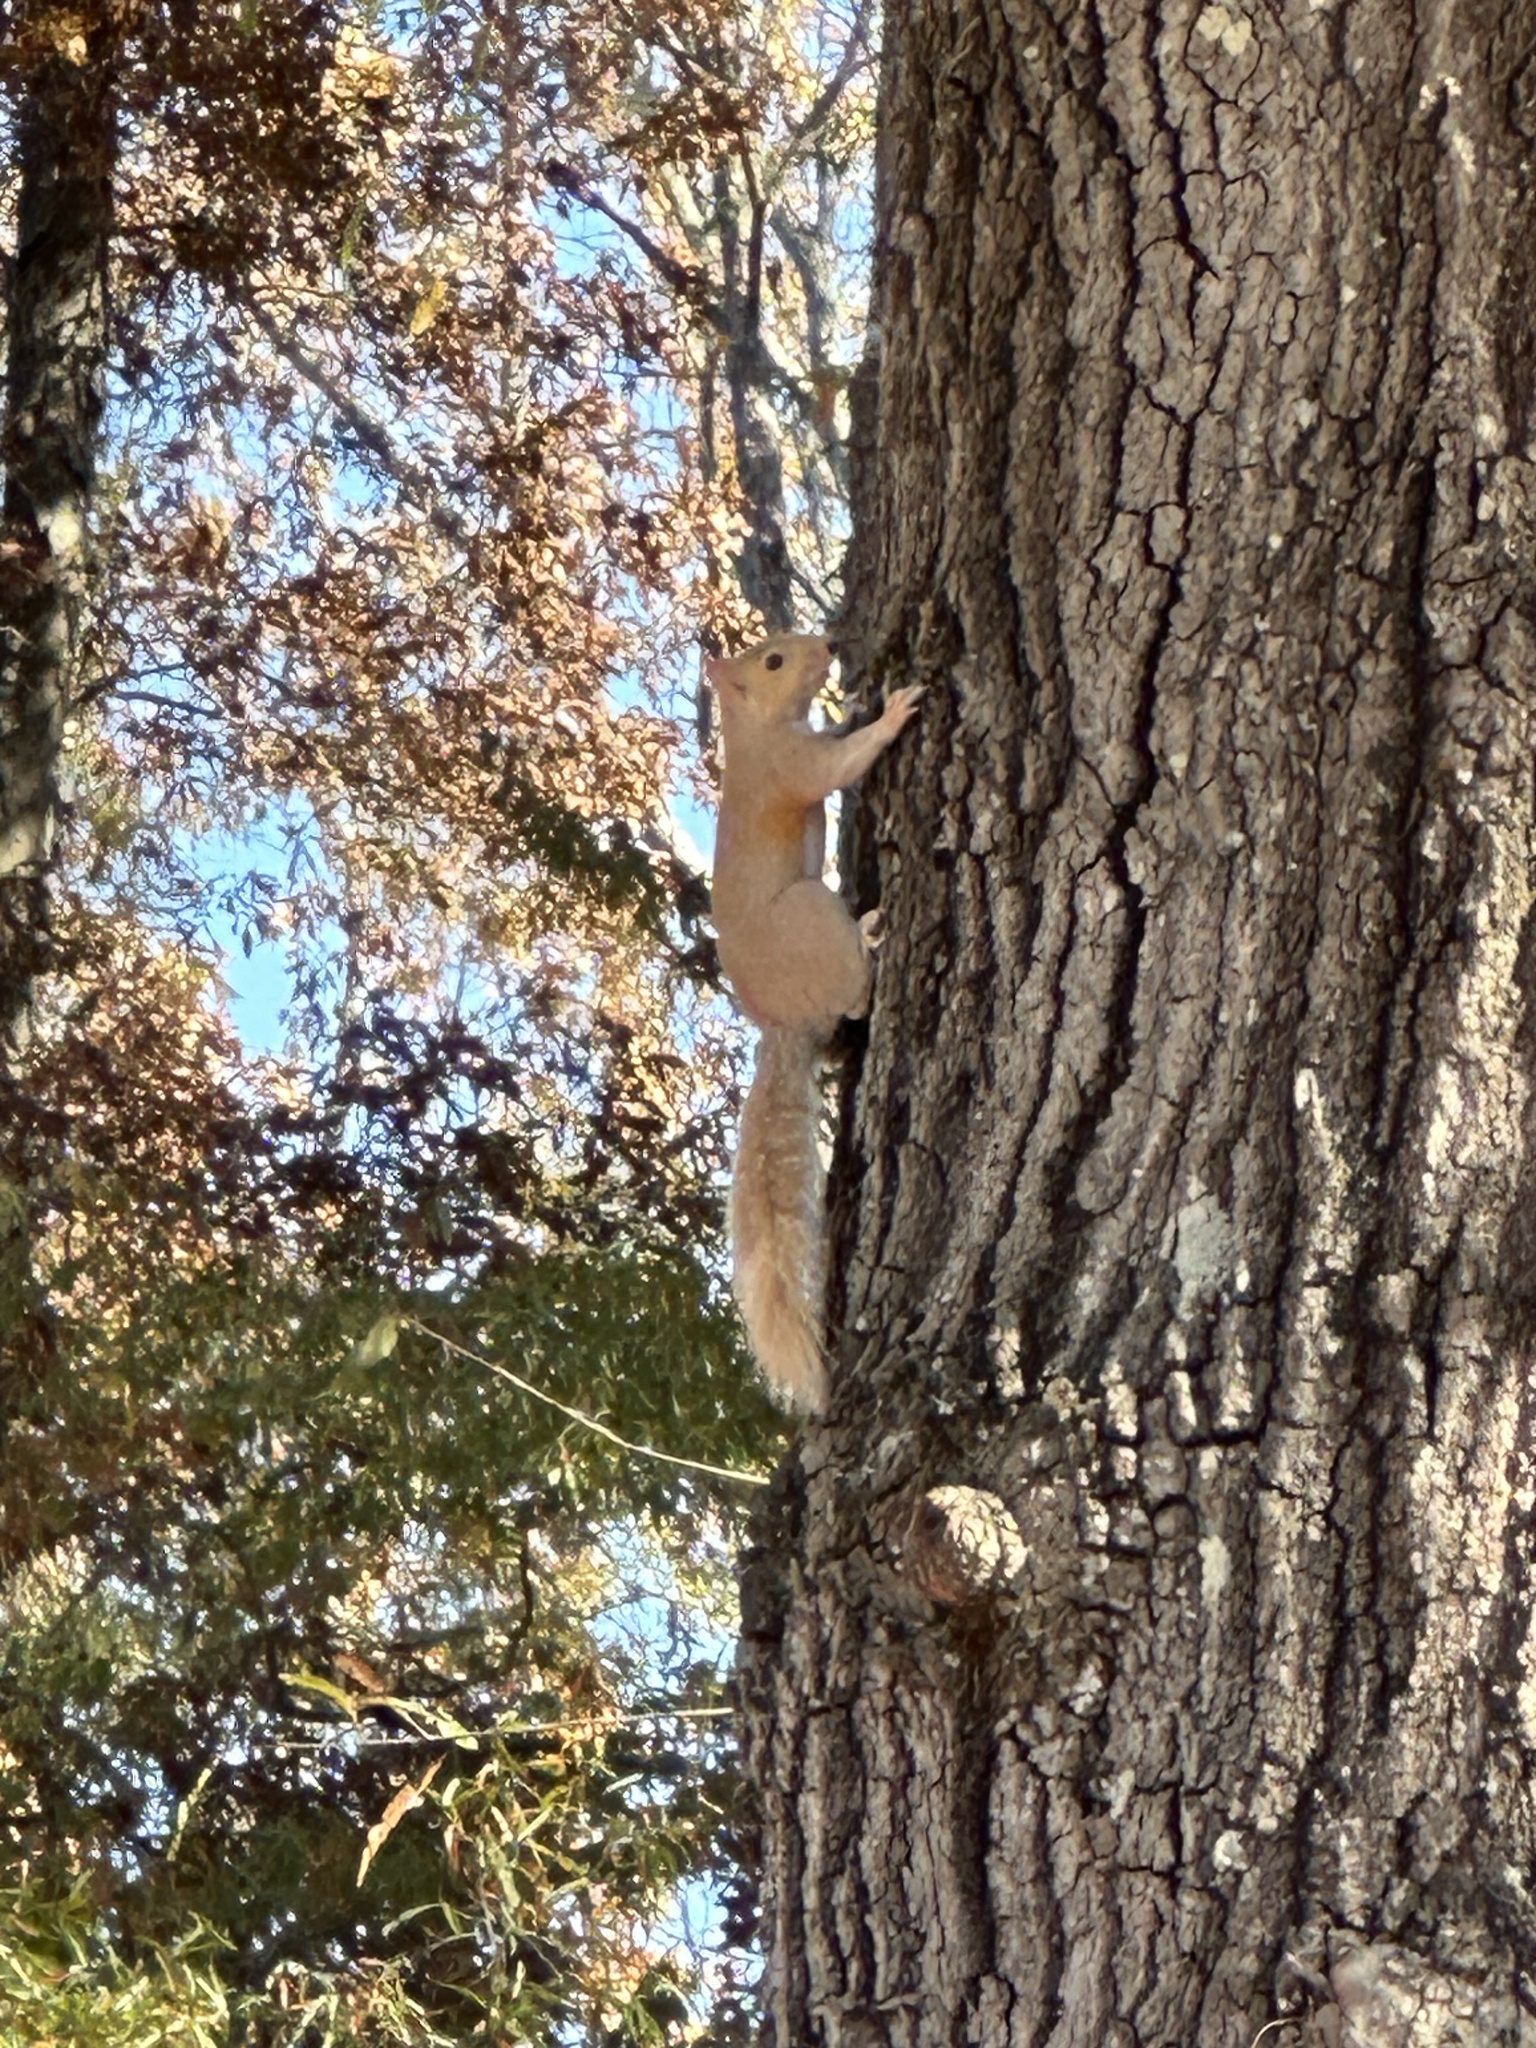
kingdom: Animalia
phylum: Chordata
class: Mammalia
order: Rodentia
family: Sciuridae
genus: Sciurus
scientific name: Sciurus carolinensis
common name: Eastern gray squirrel
